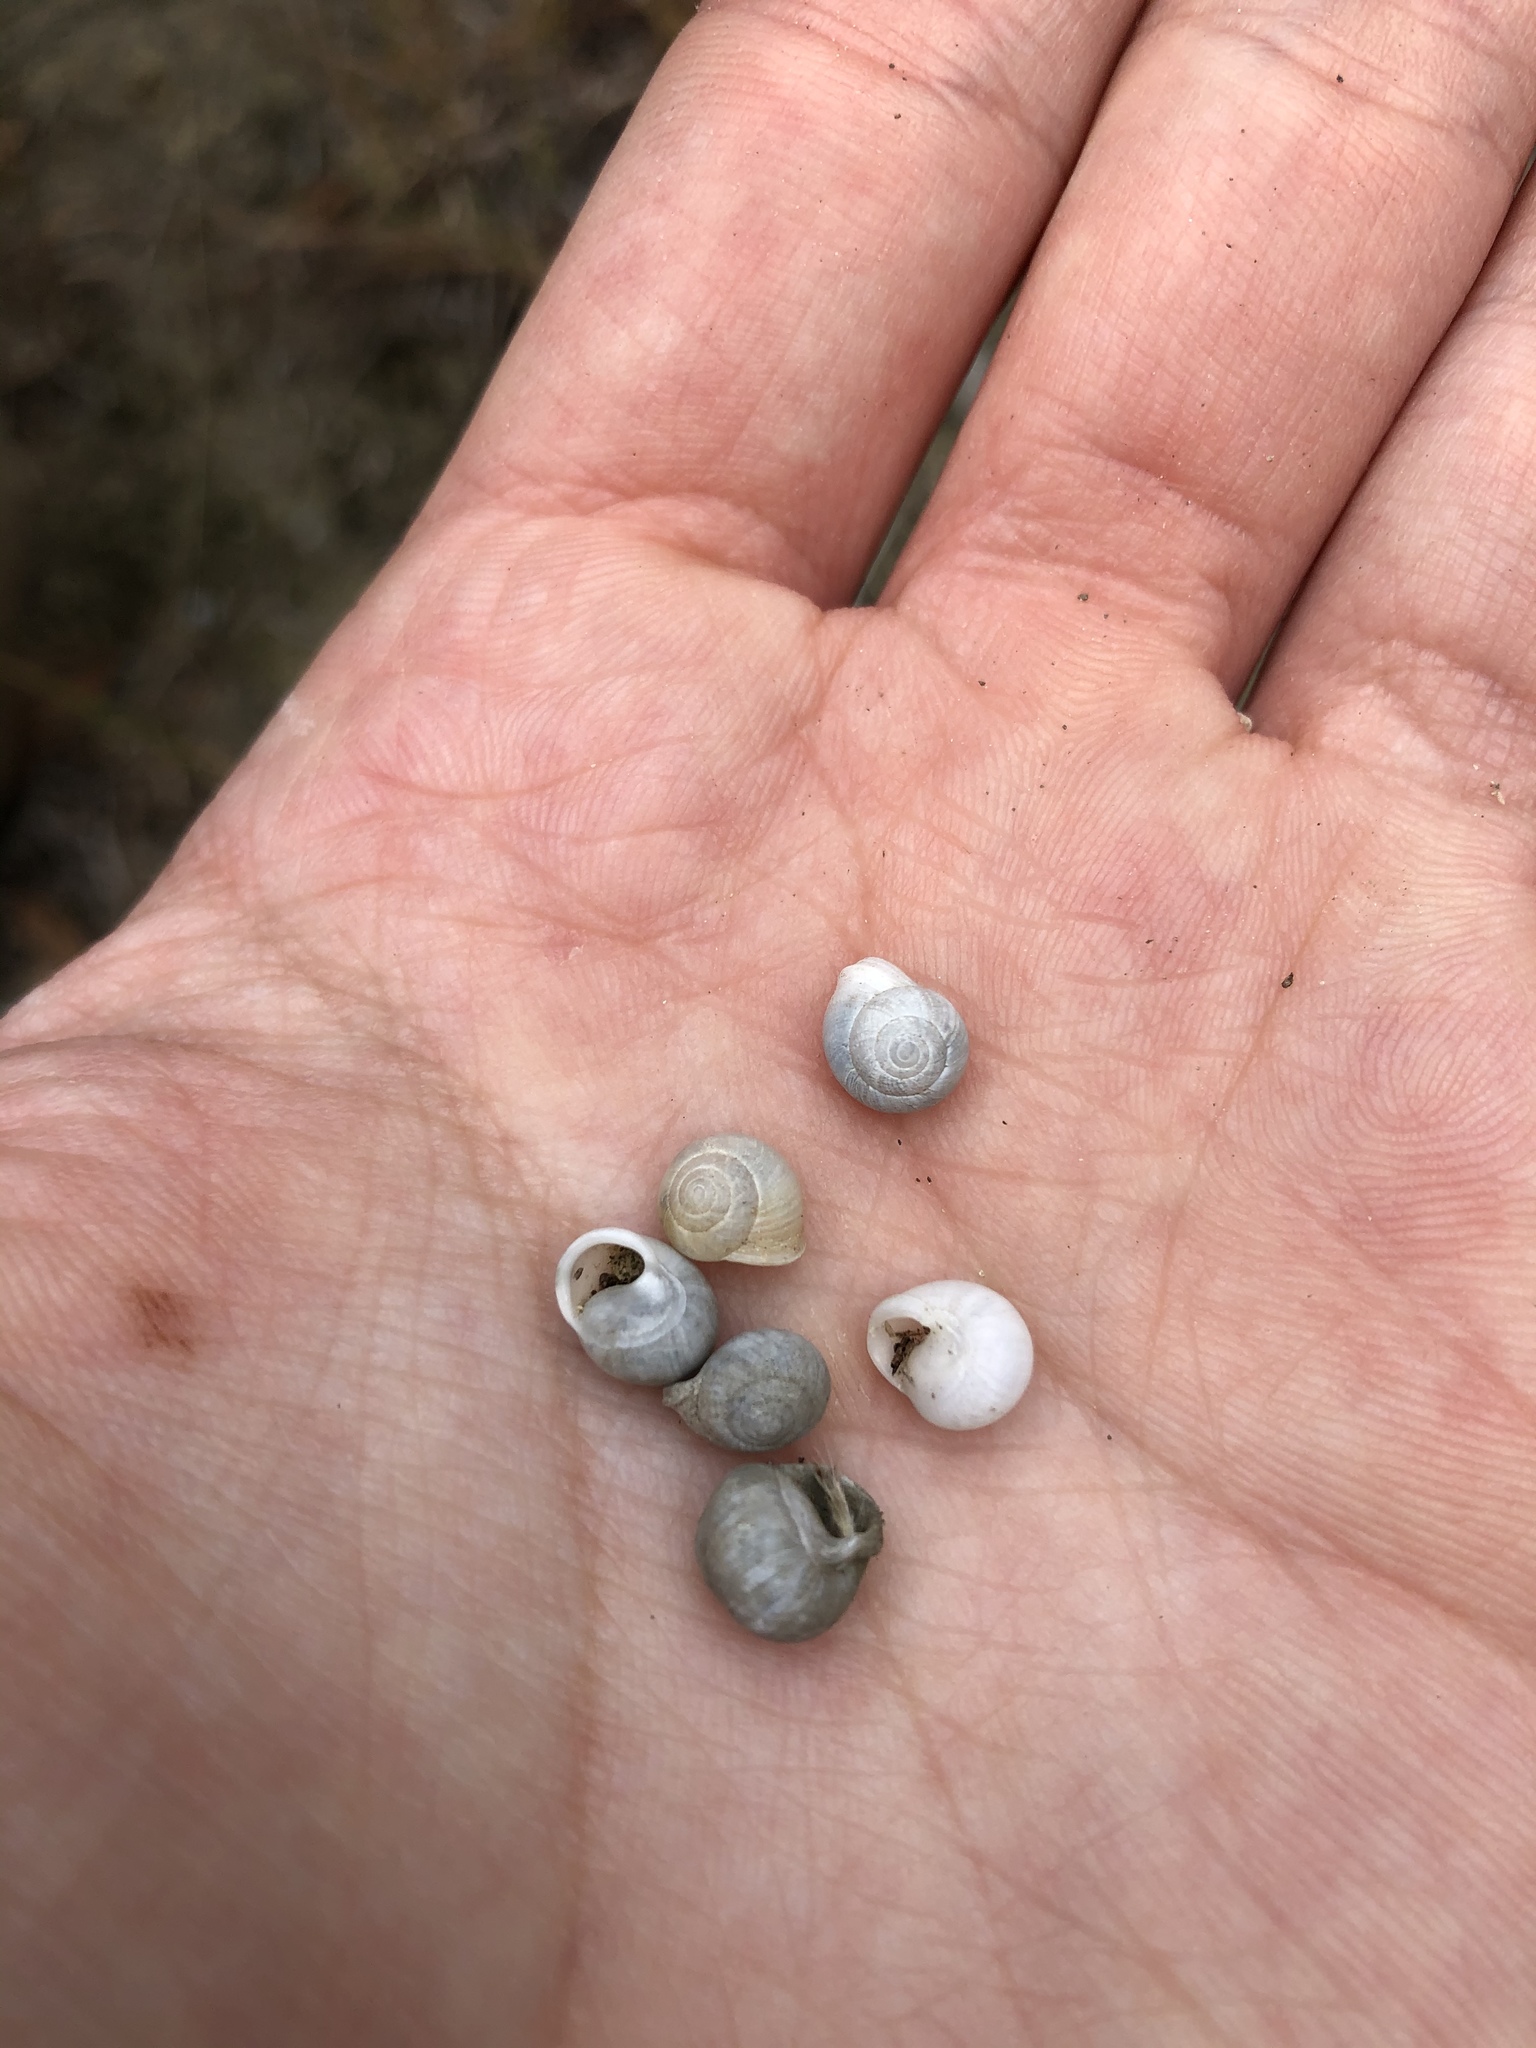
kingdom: Animalia
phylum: Mollusca
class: Gastropoda
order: Cycloneritida
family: Helicinidae
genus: Helicina
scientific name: Helicina orbiculata
